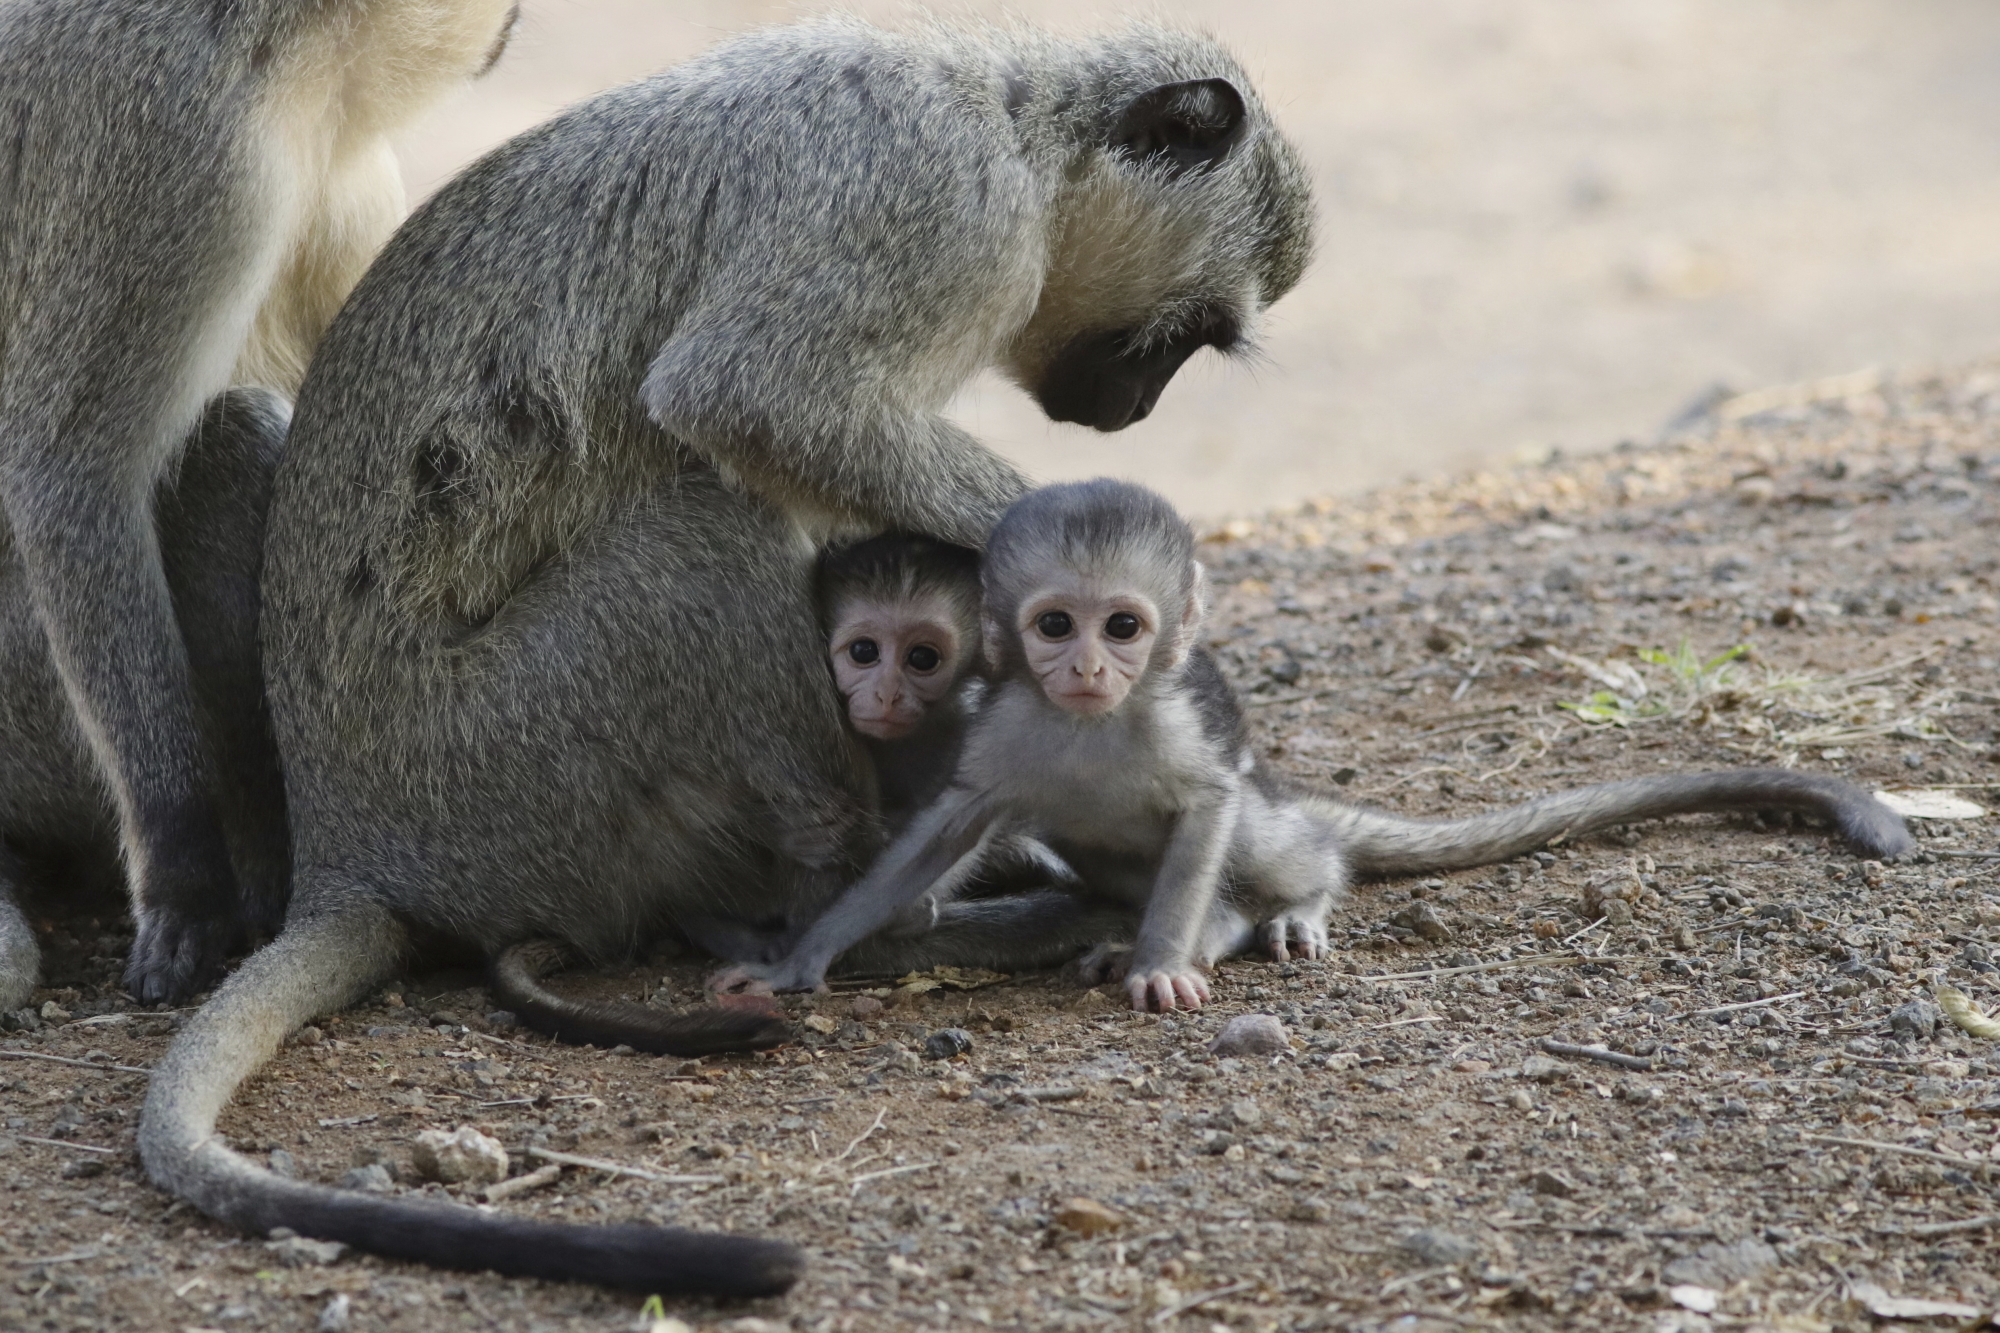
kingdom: Animalia
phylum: Chordata
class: Mammalia
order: Primates
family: Cercopithecidae
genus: Chlorocebus
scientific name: Chlorocebus pygerythrus
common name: Vervet monkey
